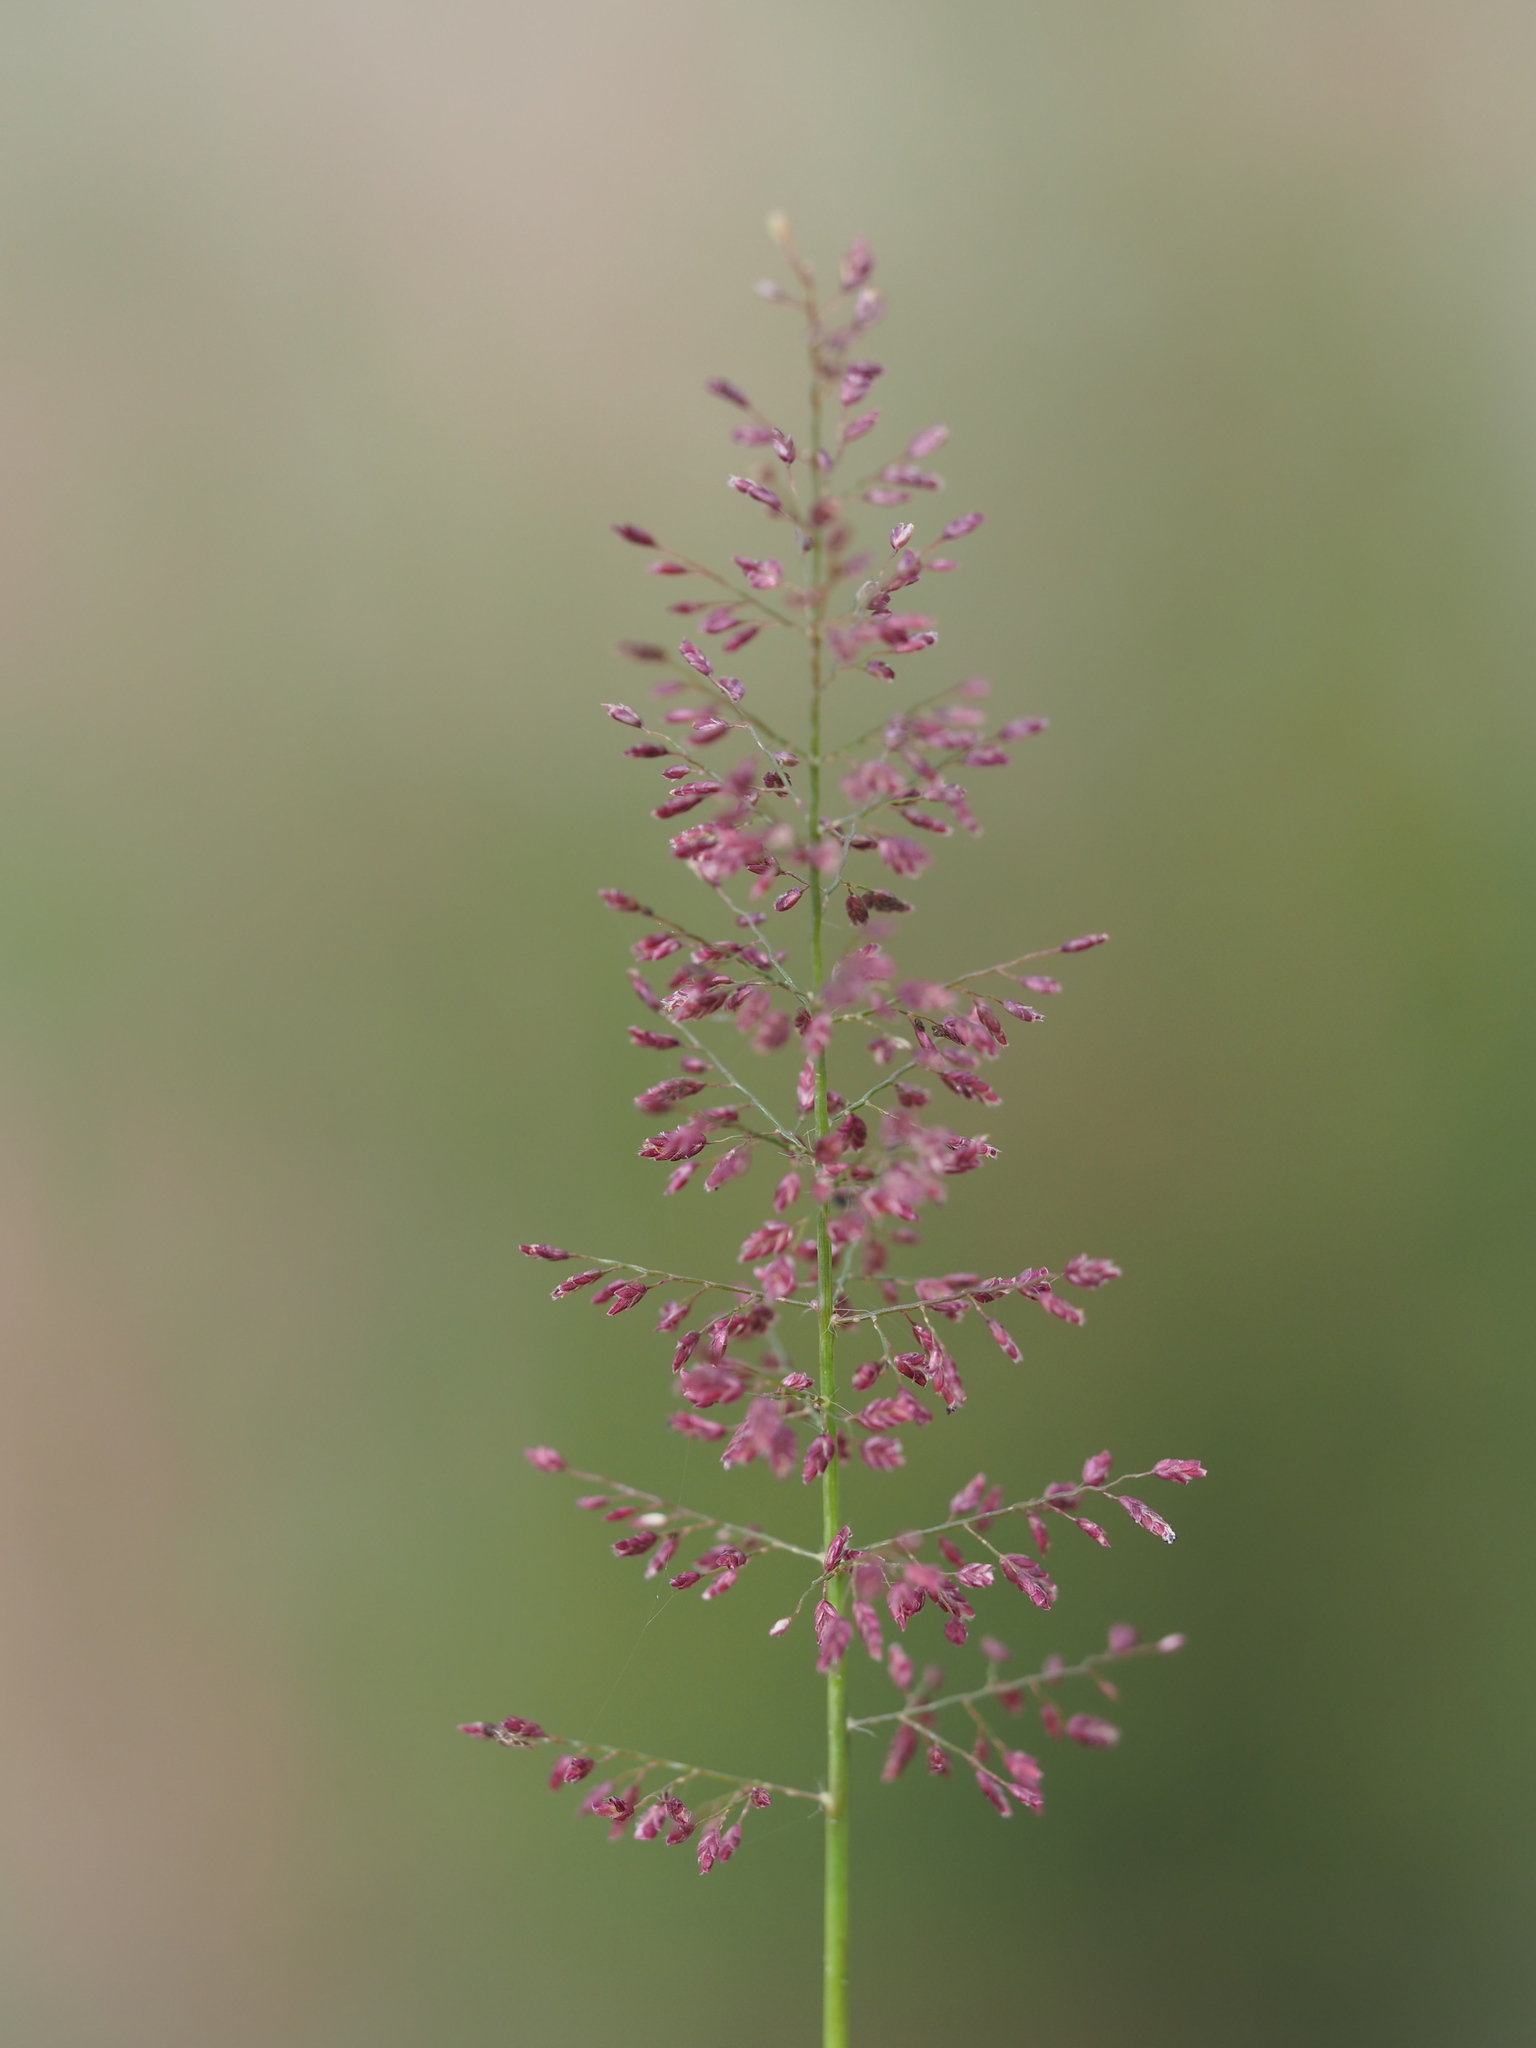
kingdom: Plantae
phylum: Tracheophyta
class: Liliopsida
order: Poales
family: Poaceae
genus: Eragrostis
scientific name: Eragrostis tenella
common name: Japanese lovegrass
